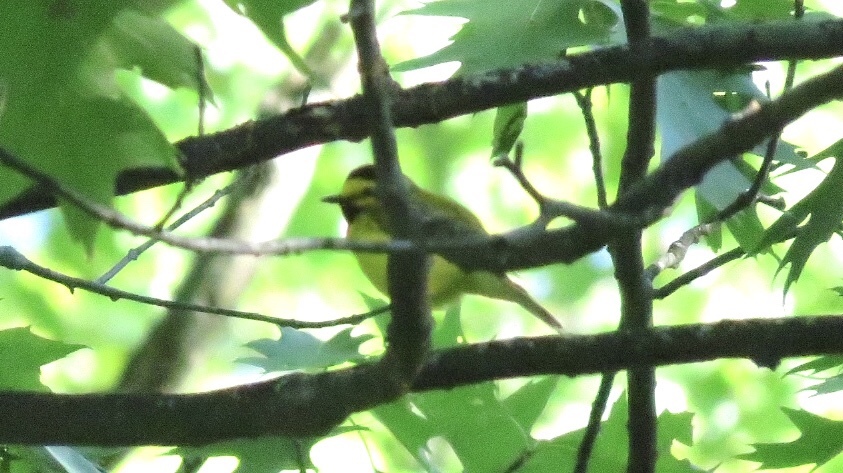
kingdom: Animalia
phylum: Chordata
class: Aves
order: Passeriformes
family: Parulidae
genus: Setophaga
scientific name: Setophaga citrina
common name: Hooded warbler
